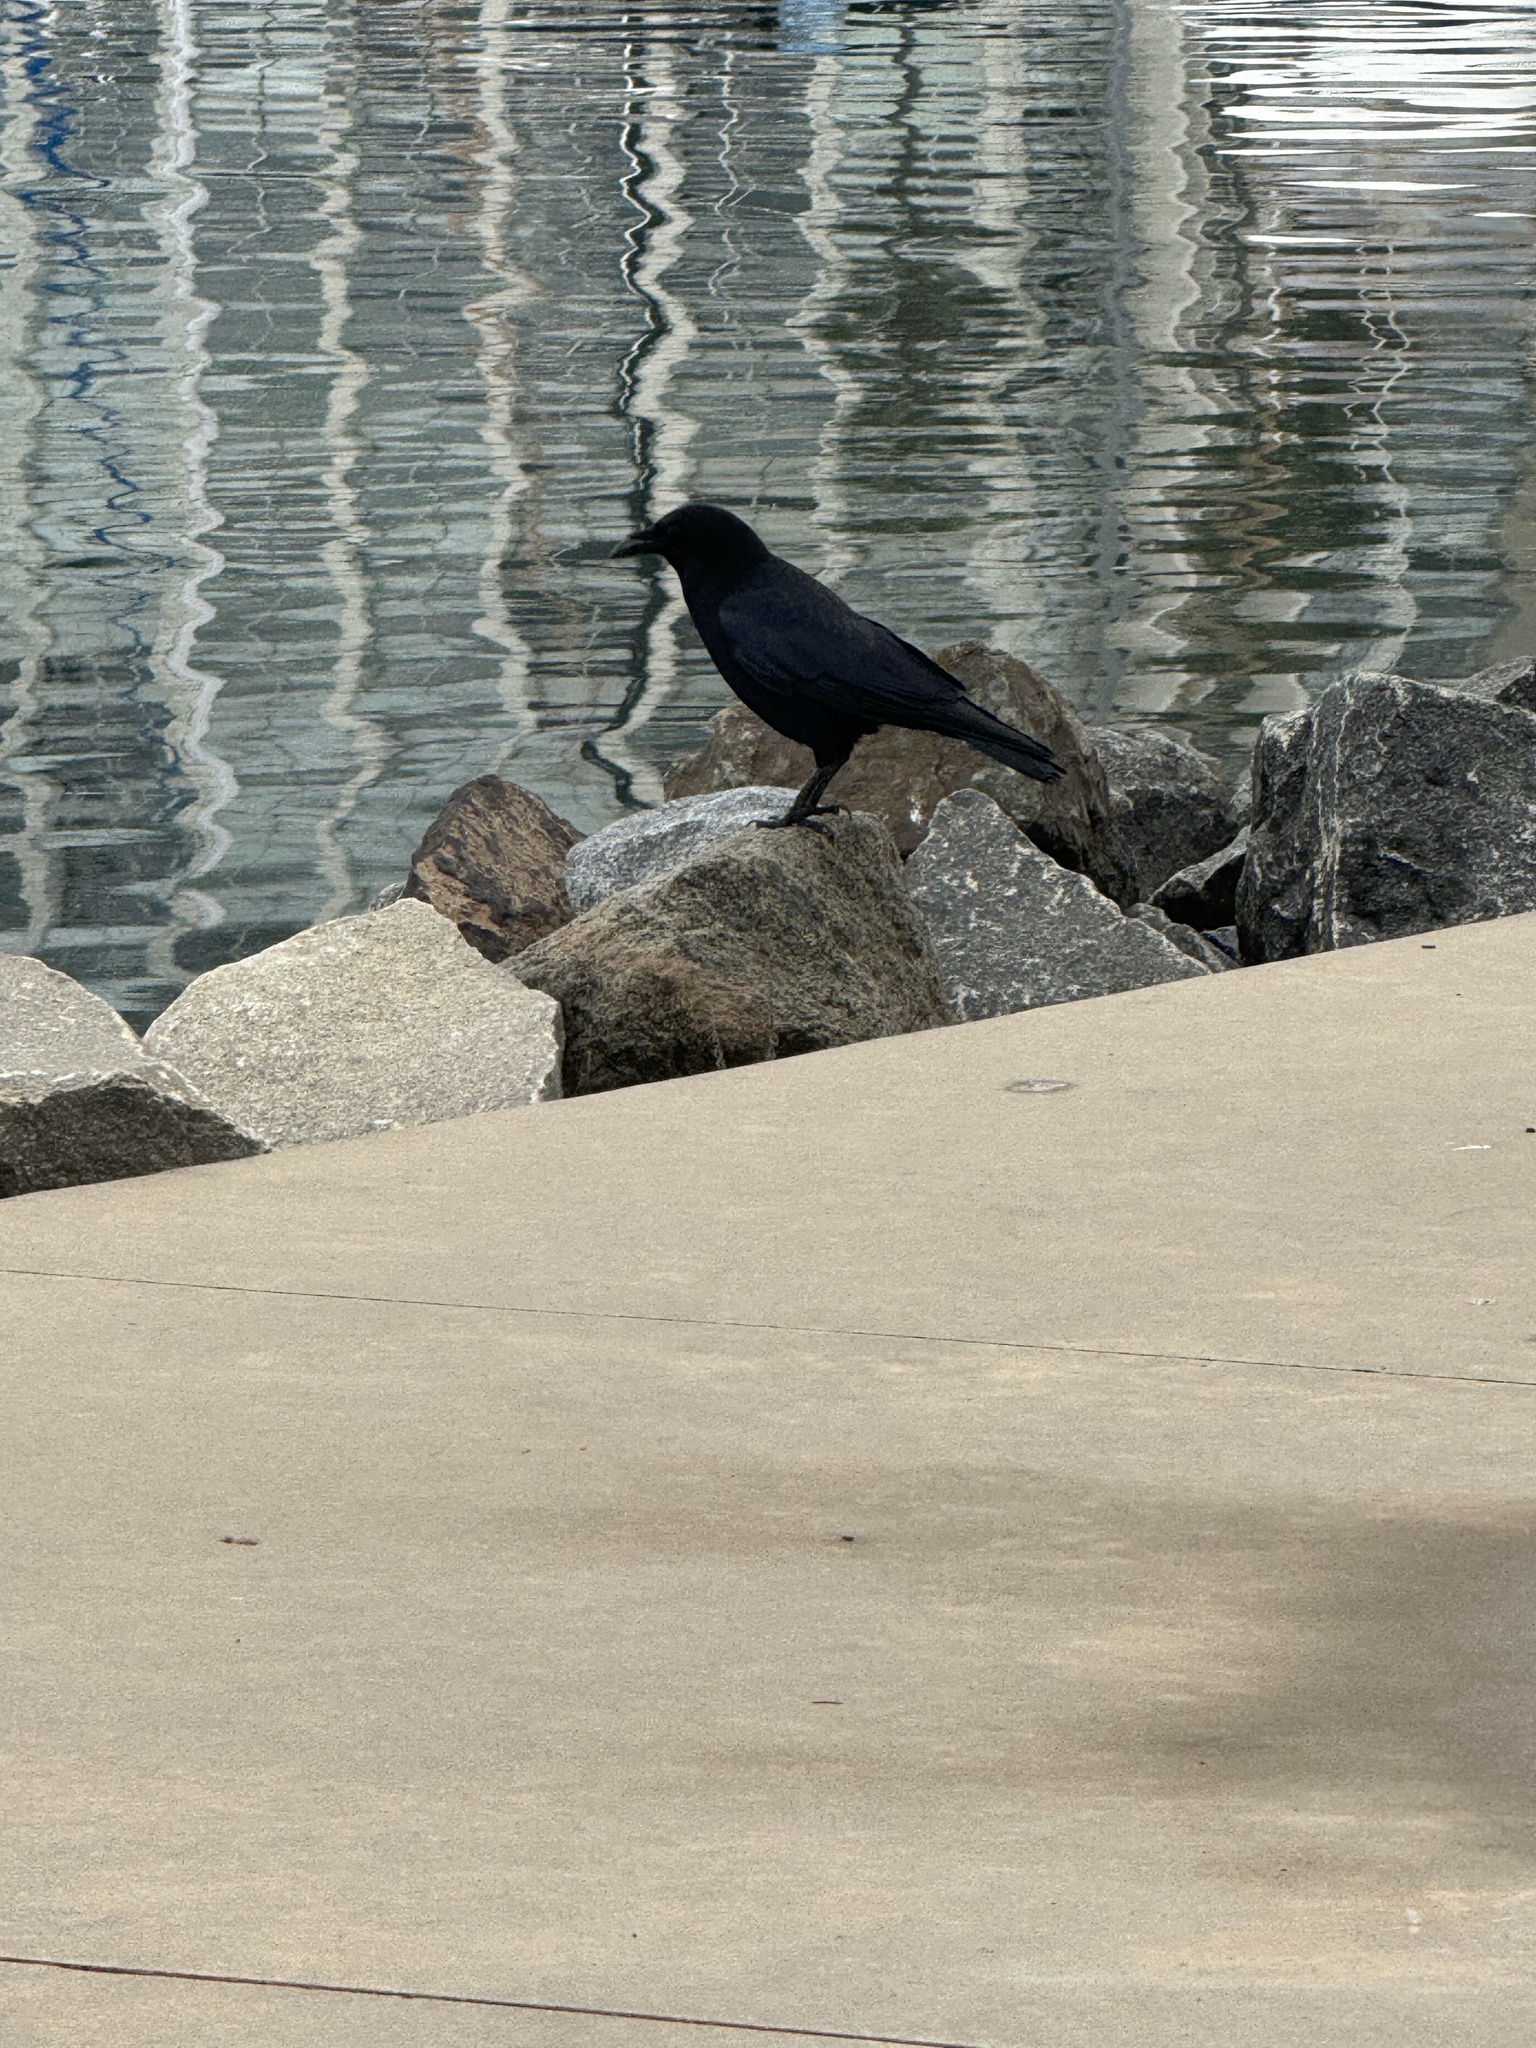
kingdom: Animalia
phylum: Chordata
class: Aves
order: Passeriformes
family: Corvidae
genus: Corvus
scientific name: Corvus brachyrhynchos
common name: American crow
